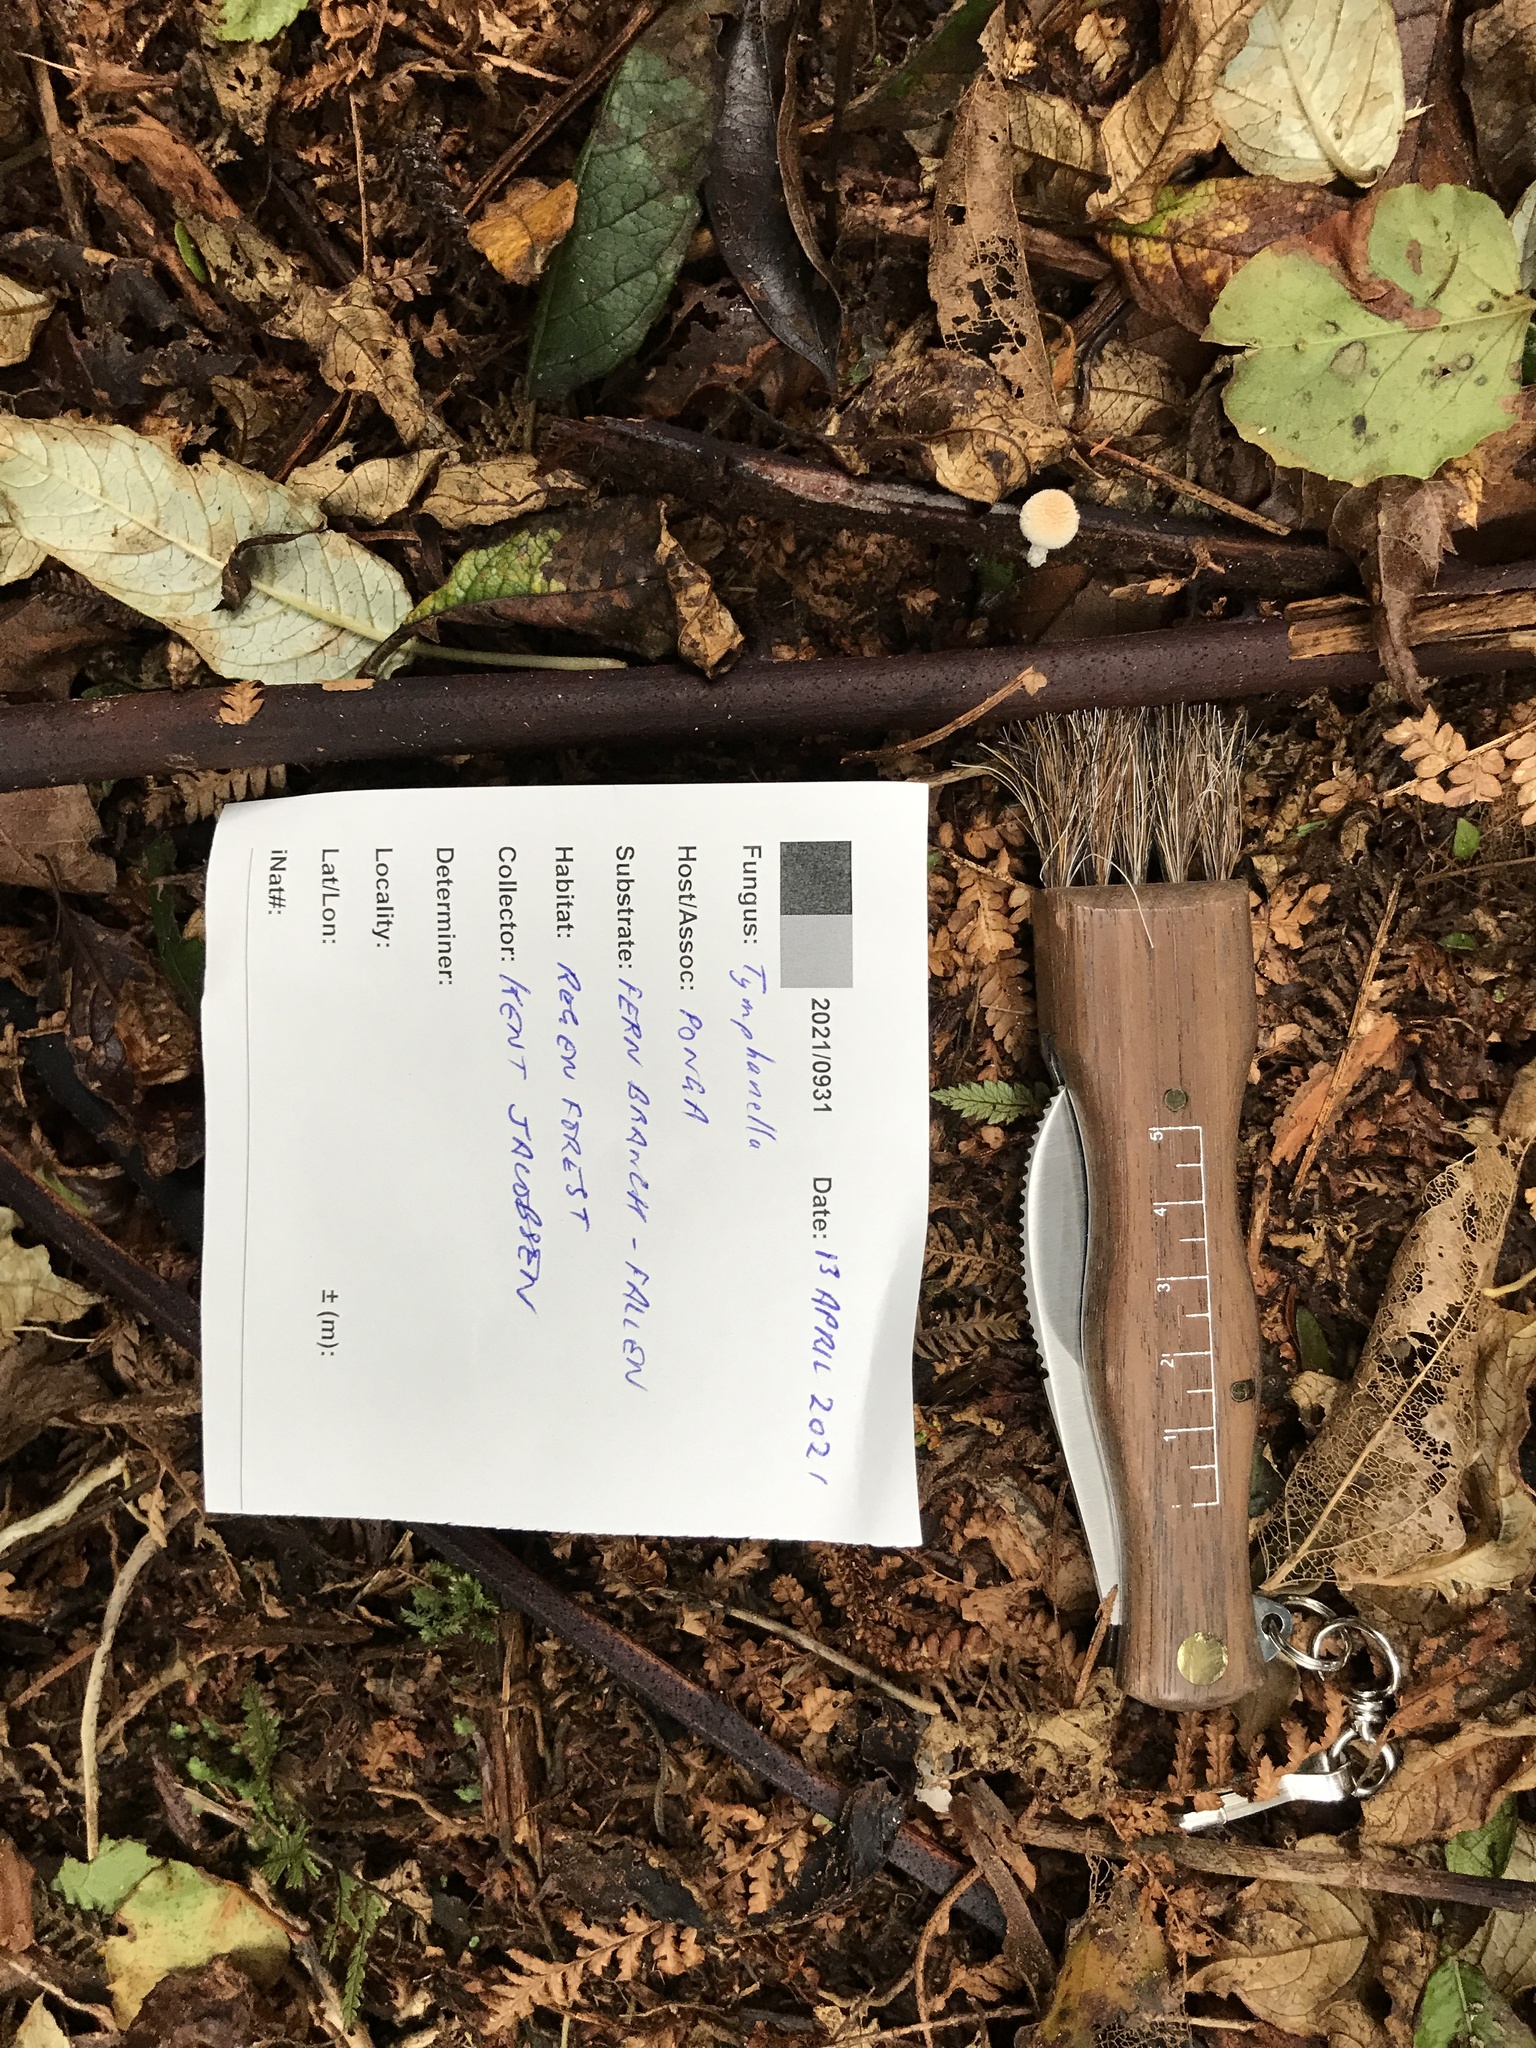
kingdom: Fungi
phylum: Basidiomycota
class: Agaricomycetes
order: Agaricales
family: Bolbitiaceae
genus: Tympanella
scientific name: Tympanella galanthina
